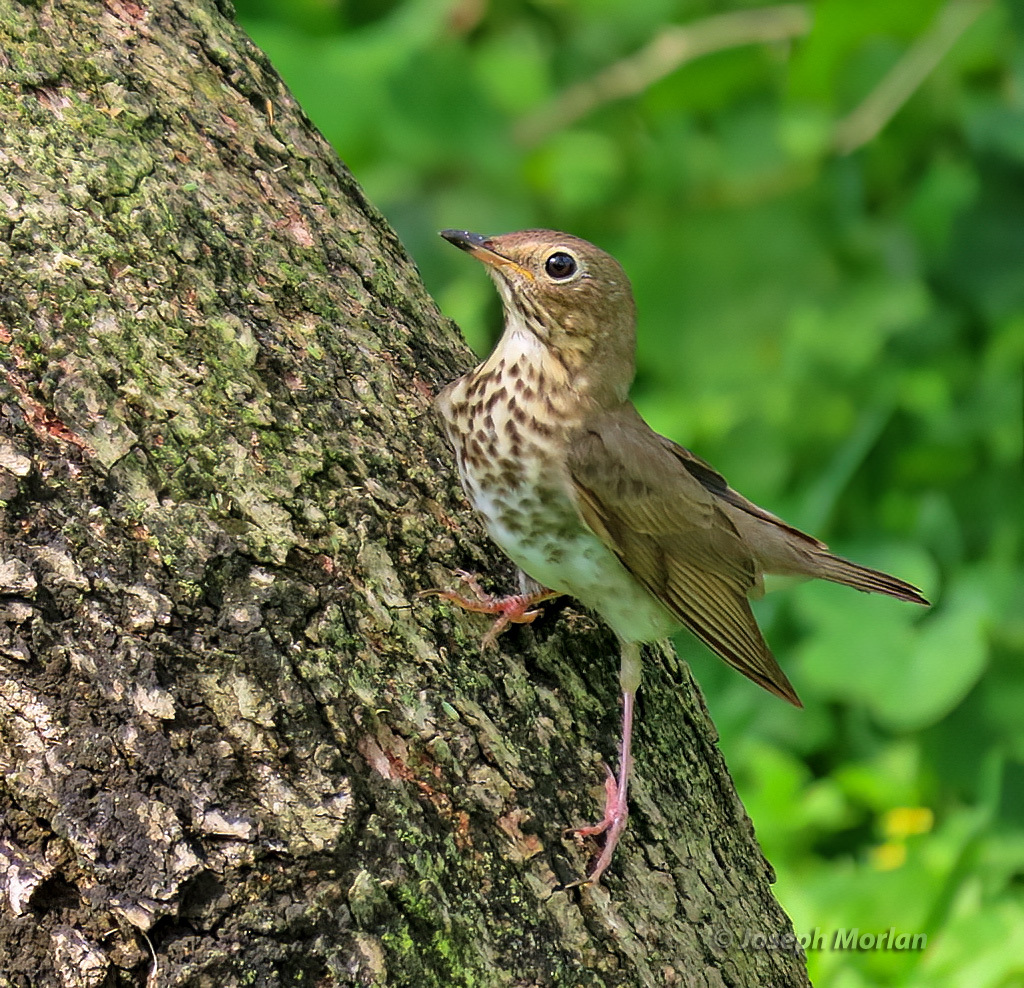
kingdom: Animalia
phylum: Chordata
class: Aves
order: Passeriformes
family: Turdidae
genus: Catharus
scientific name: Catharus ustulatus
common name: Swainson's thrush
